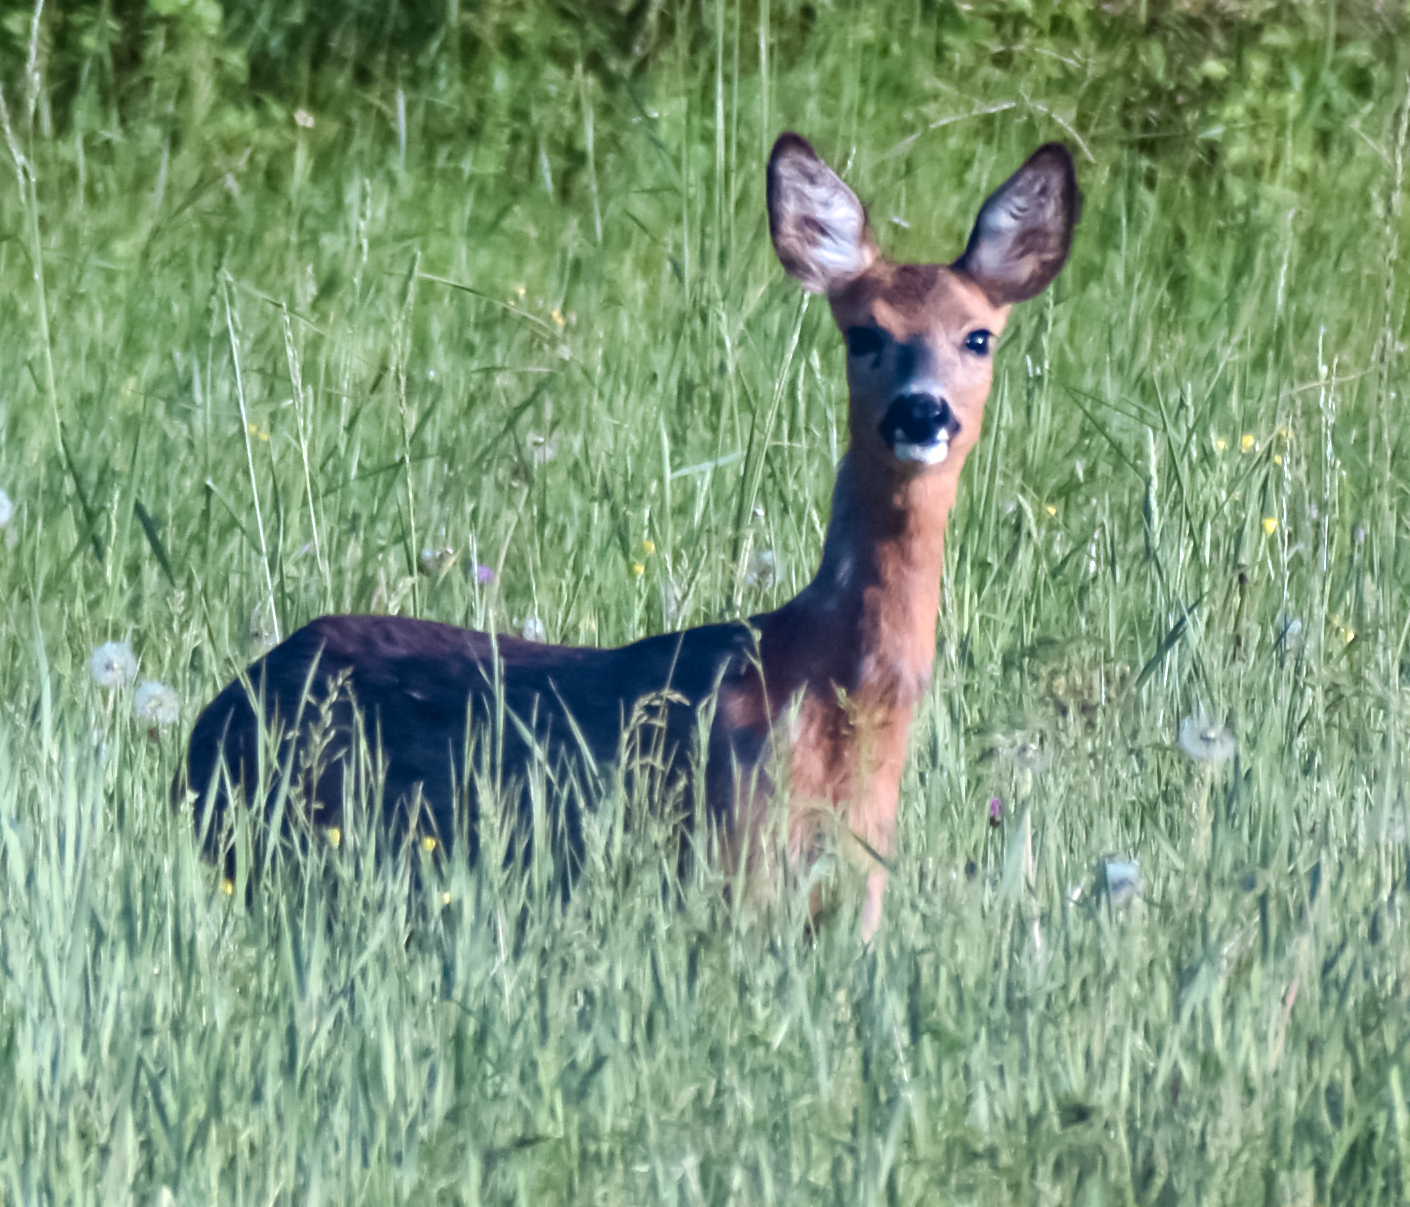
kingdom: Animalia
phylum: Chordata
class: Mammalia
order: Artiodactyla
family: Cervidae
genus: Capreolus
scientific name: Capreolus capreolus
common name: Western roe deer
